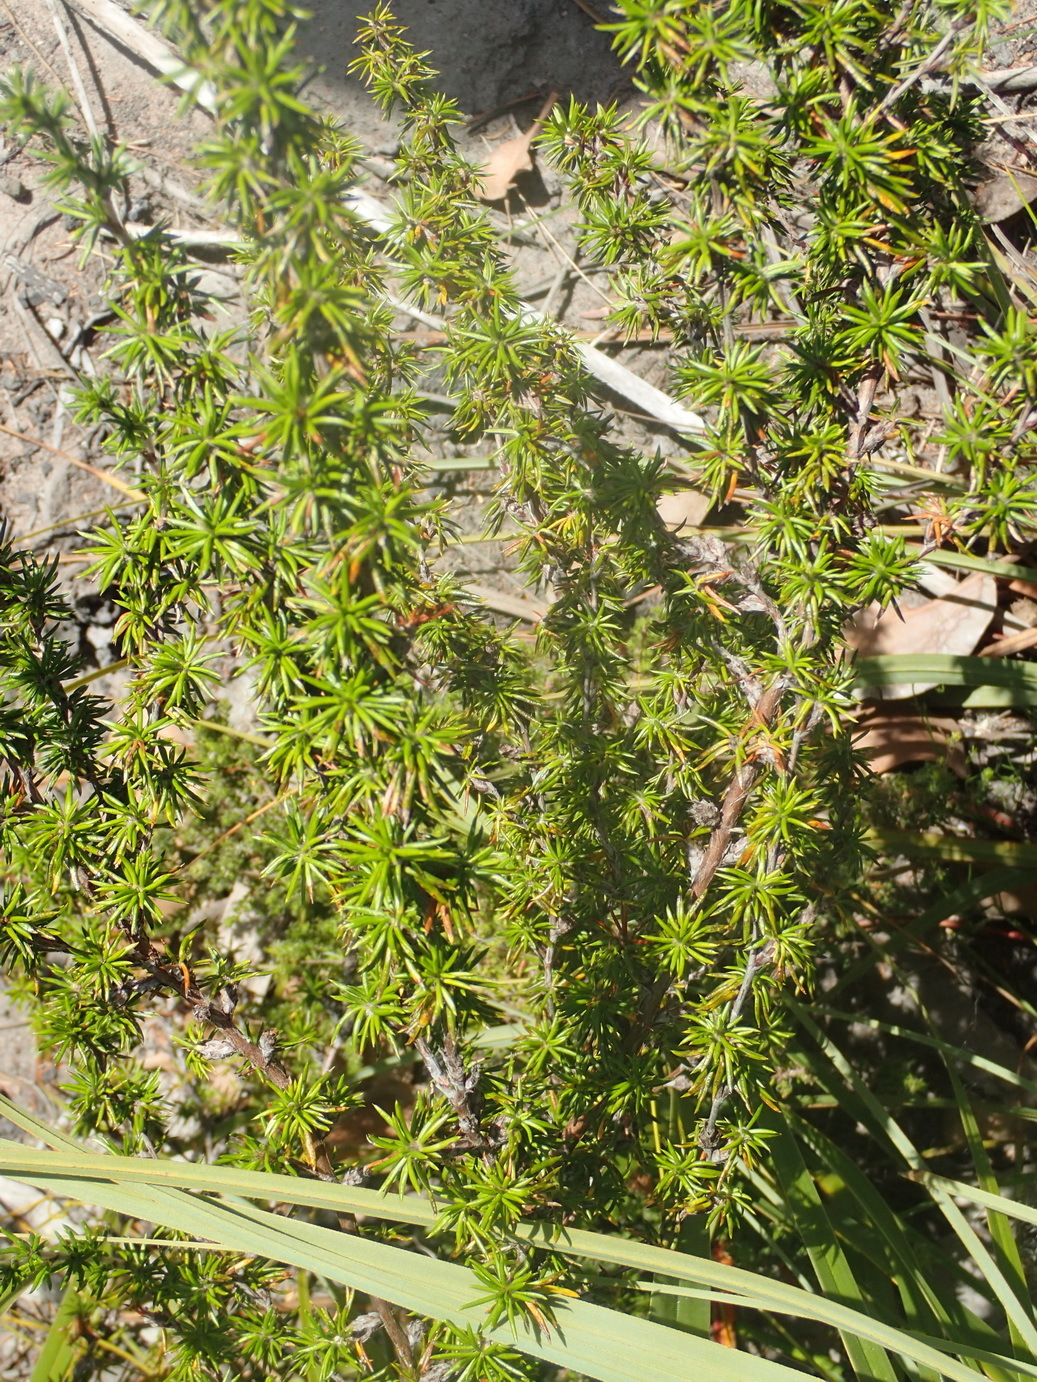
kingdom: Plantae
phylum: Tracheophyta
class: Magnoliopsida
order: Rosales
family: Rosaceae
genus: Cliffortia
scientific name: Cliffortia stricta
